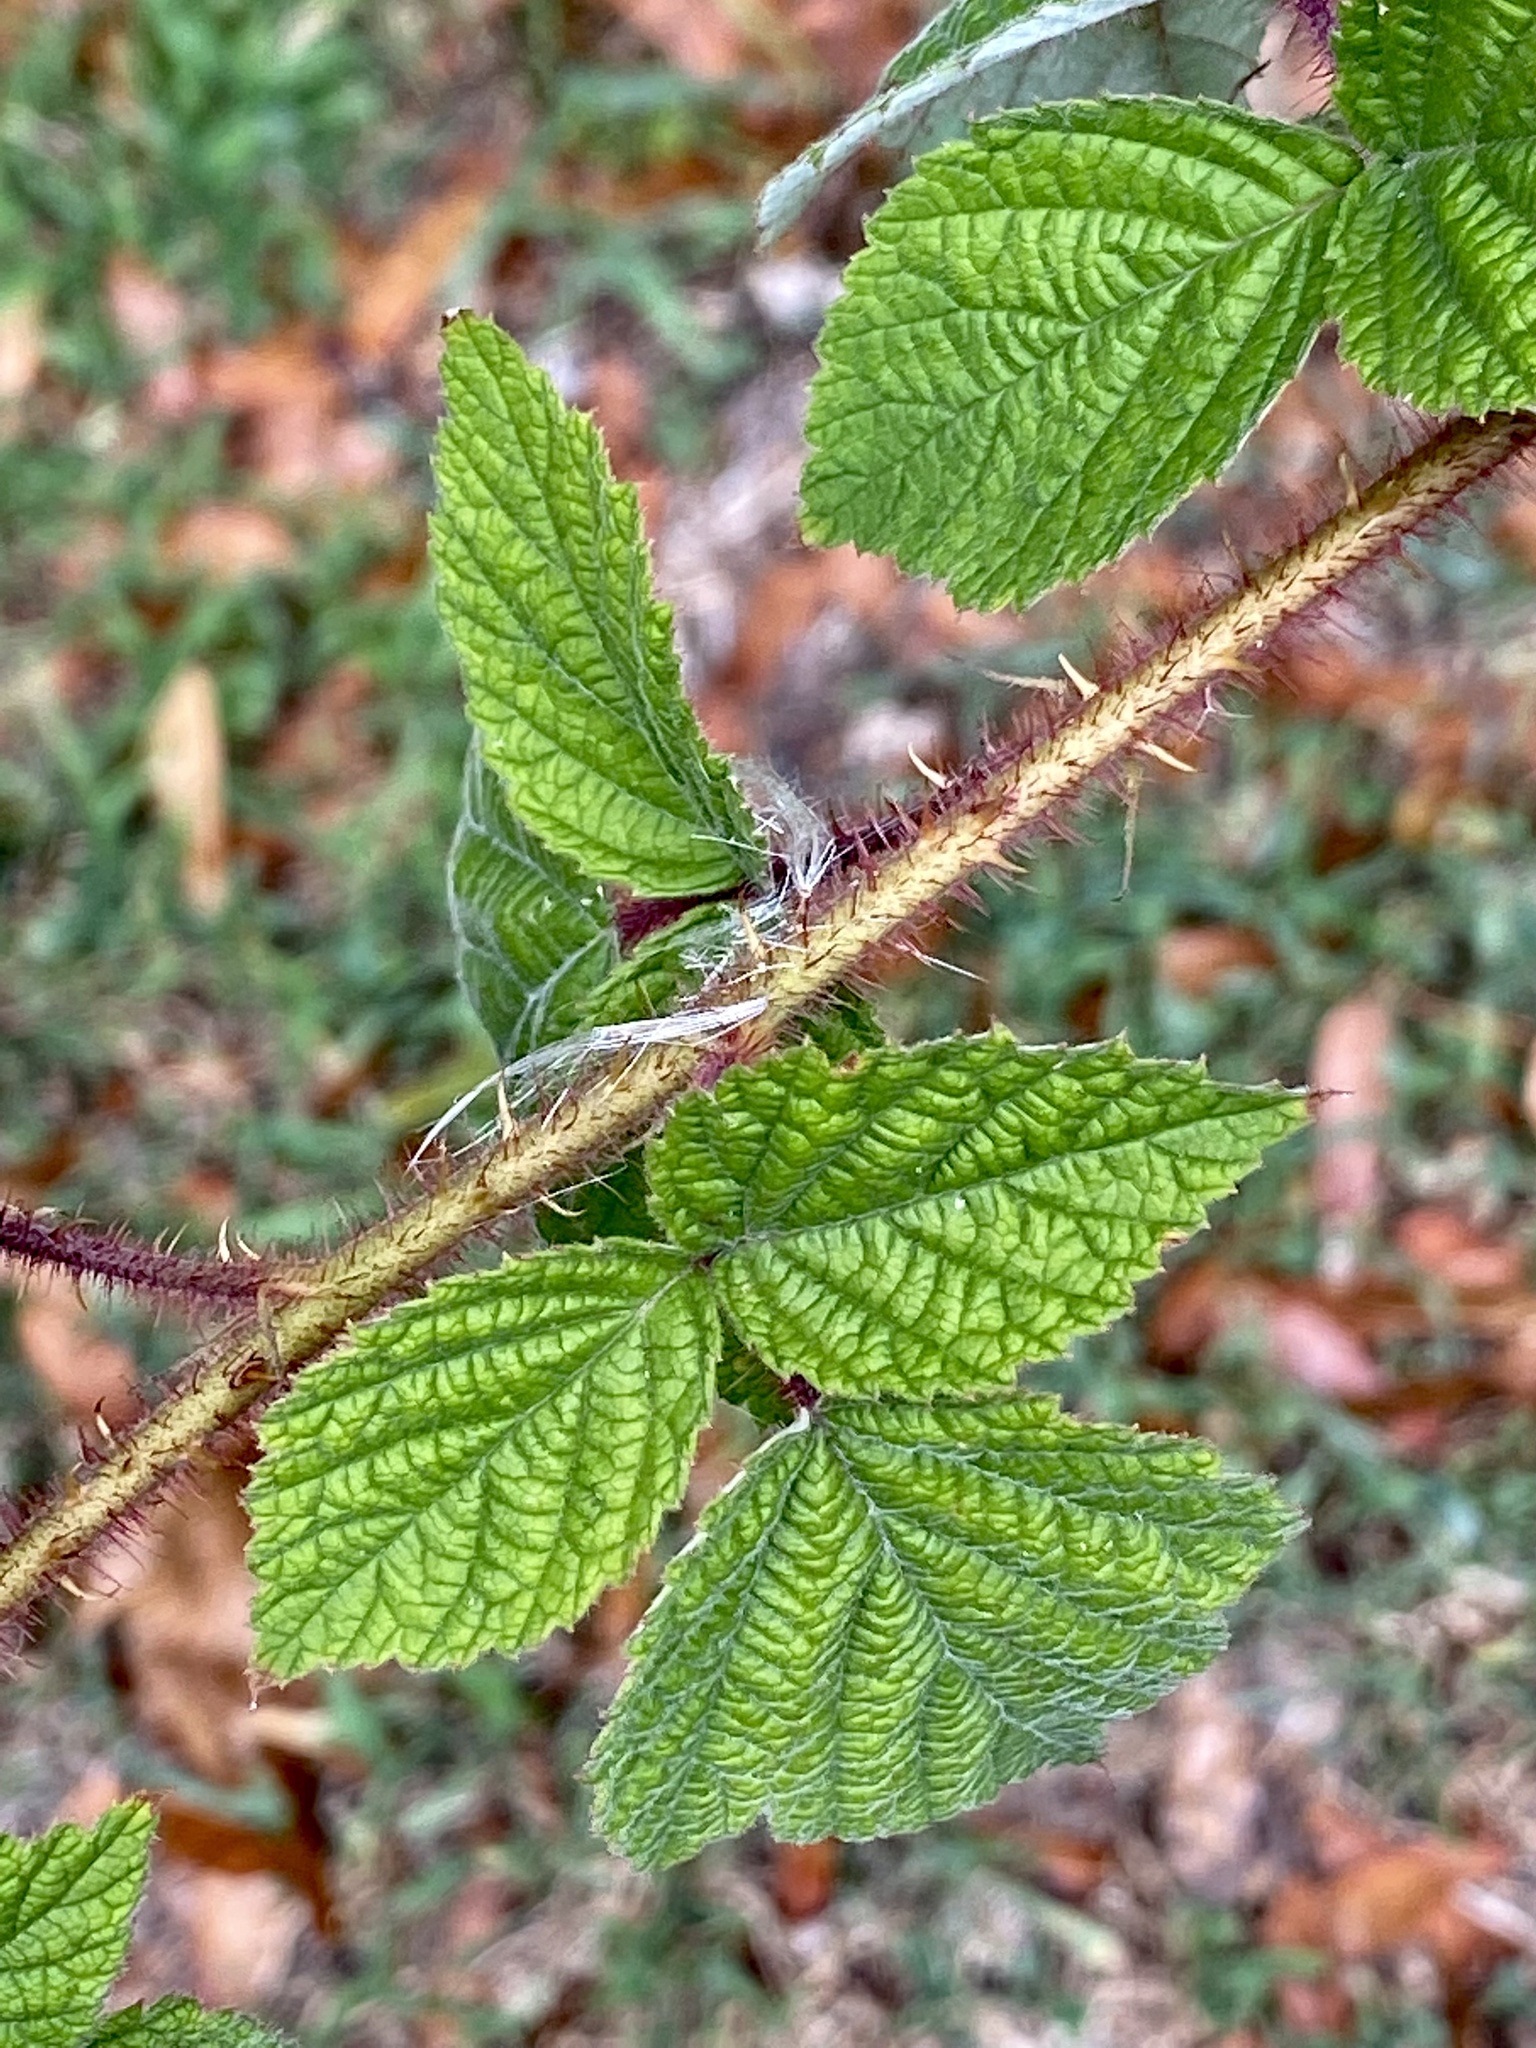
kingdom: Plantae
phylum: Tracheophyta
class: Magnoliopsida
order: Rosales
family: Rosaceae
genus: Rubus
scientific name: Rubus phoenicolasius
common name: Japanese wineberry
